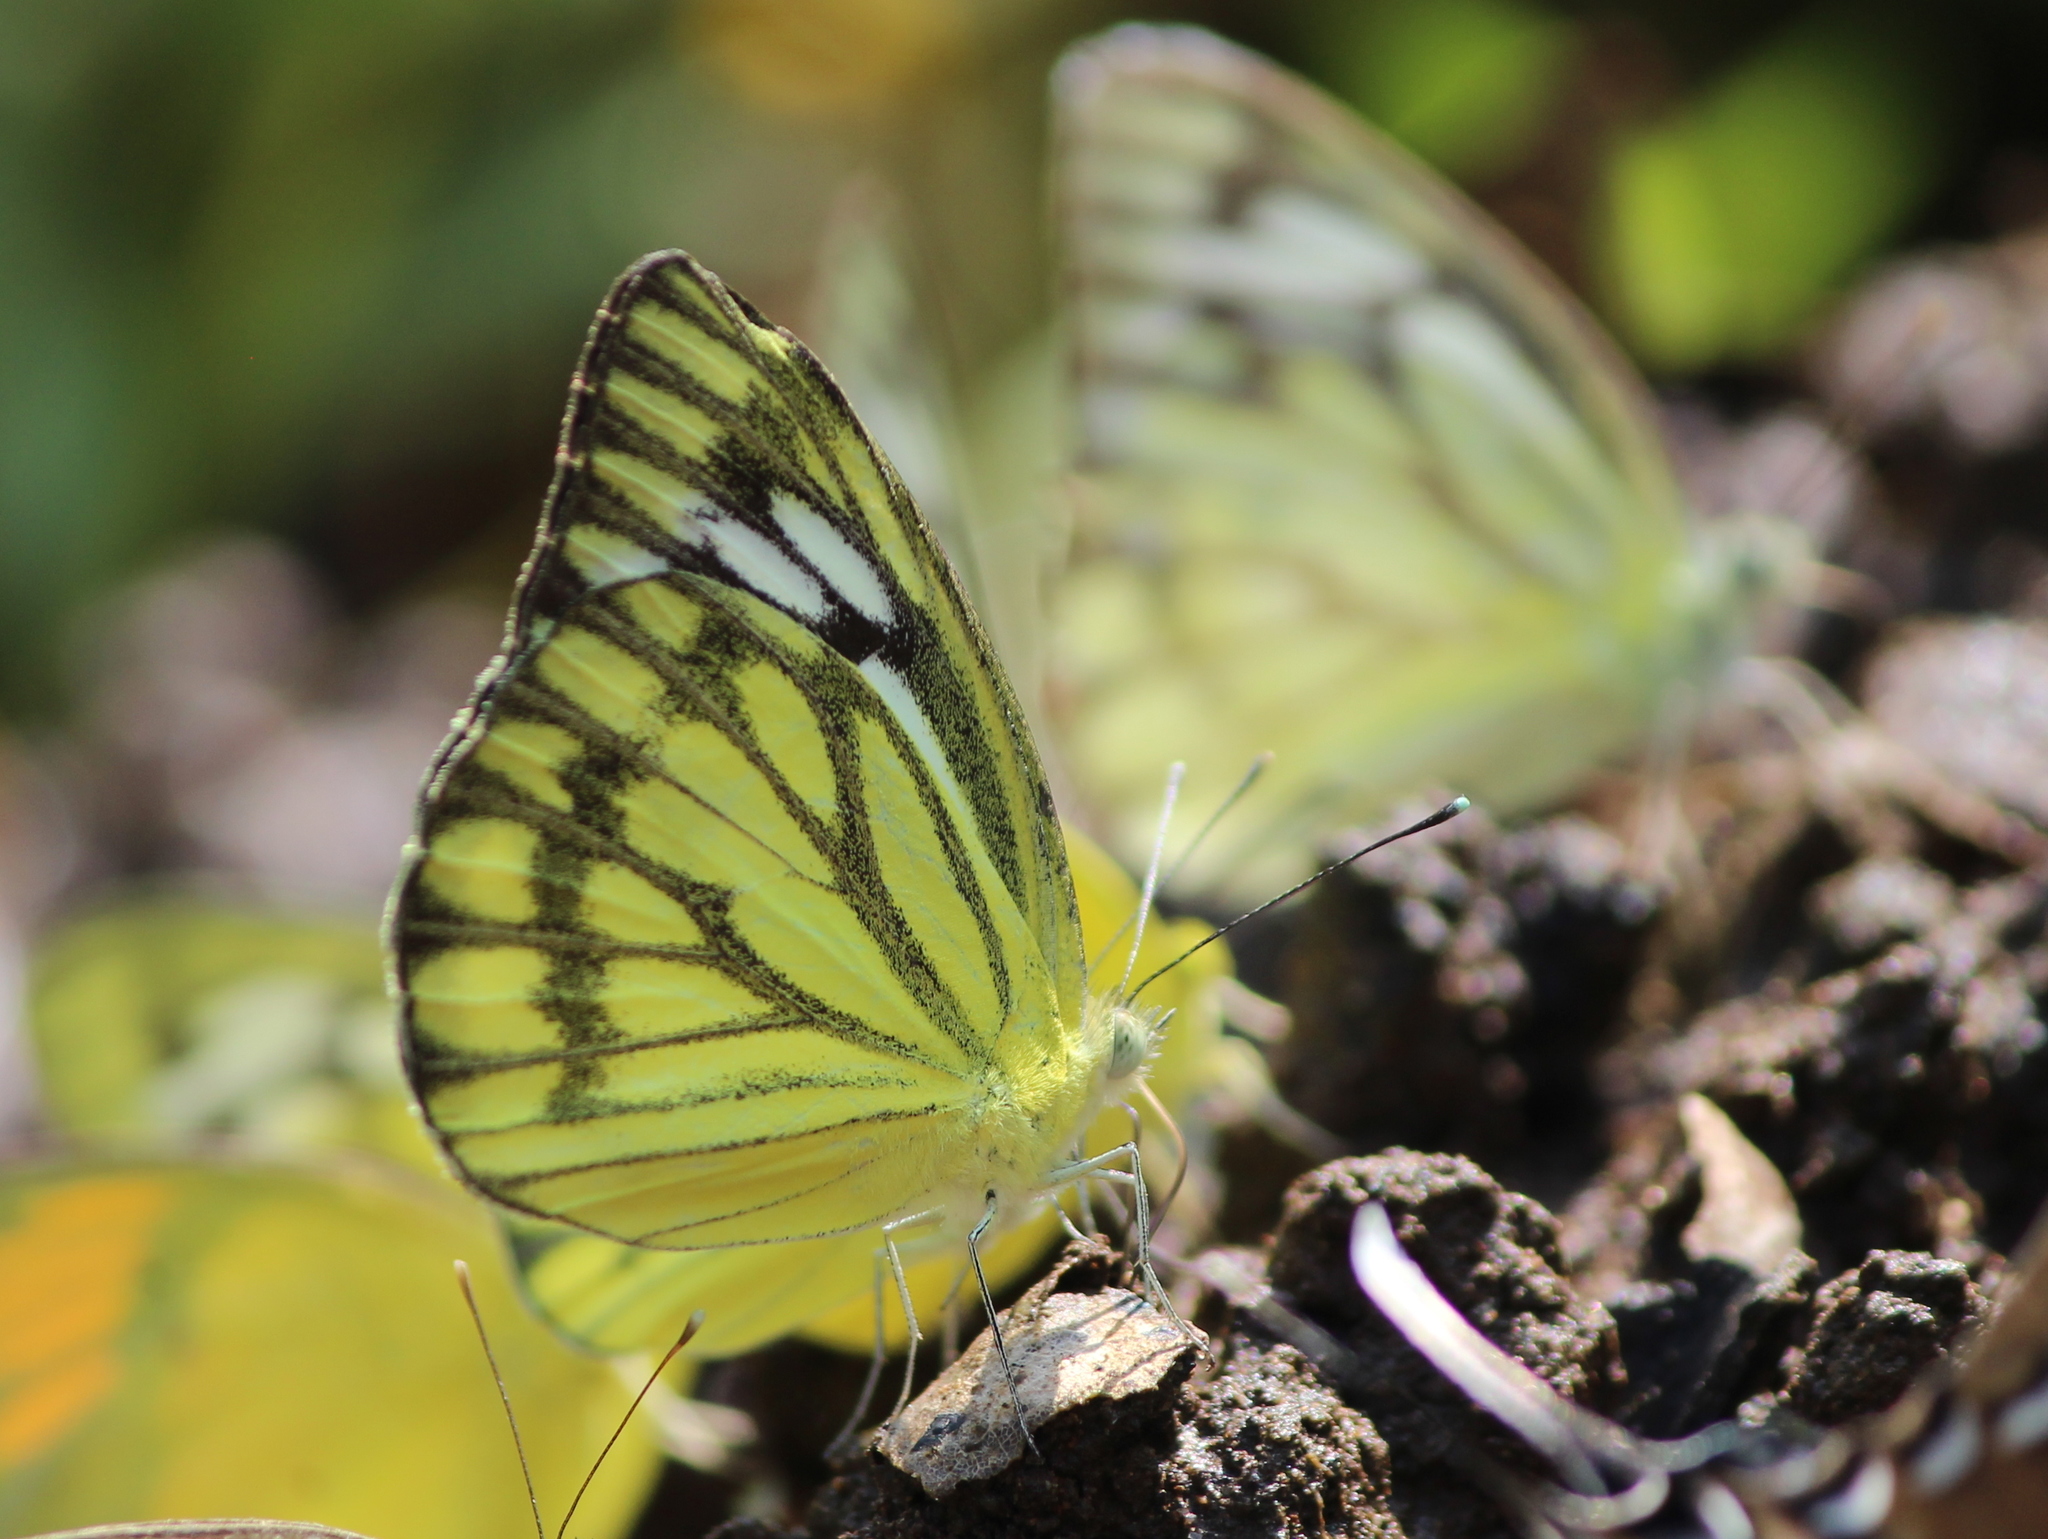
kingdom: Animalia
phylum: Arthropoda
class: Insecta
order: Lepidoptera
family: Pieridae
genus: Cepora
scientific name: Cepora nerissa
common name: Common gull
